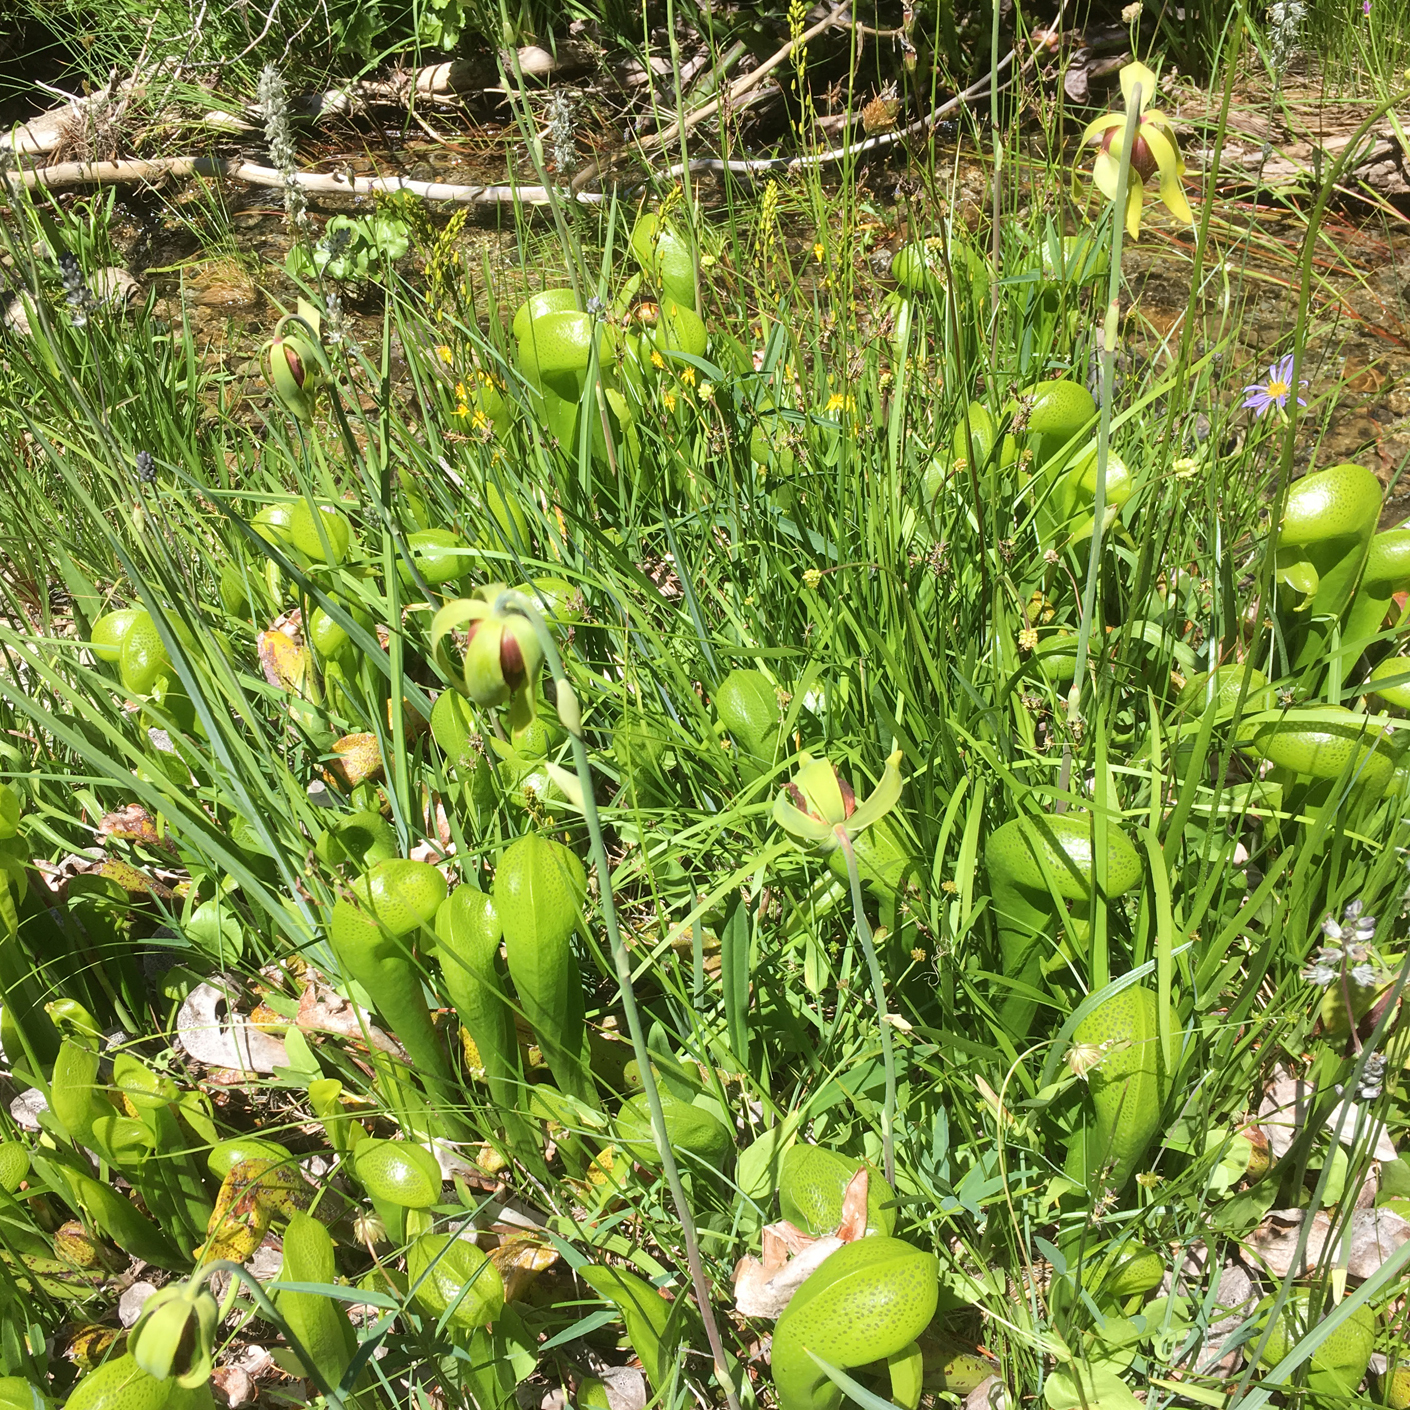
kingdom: Plantae
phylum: Tracheophyta
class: Magnoliopsida
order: Ericales
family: Sarraceniaceae
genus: Darlingtonia
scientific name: Darlingtonia californica
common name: California pitcher plant
